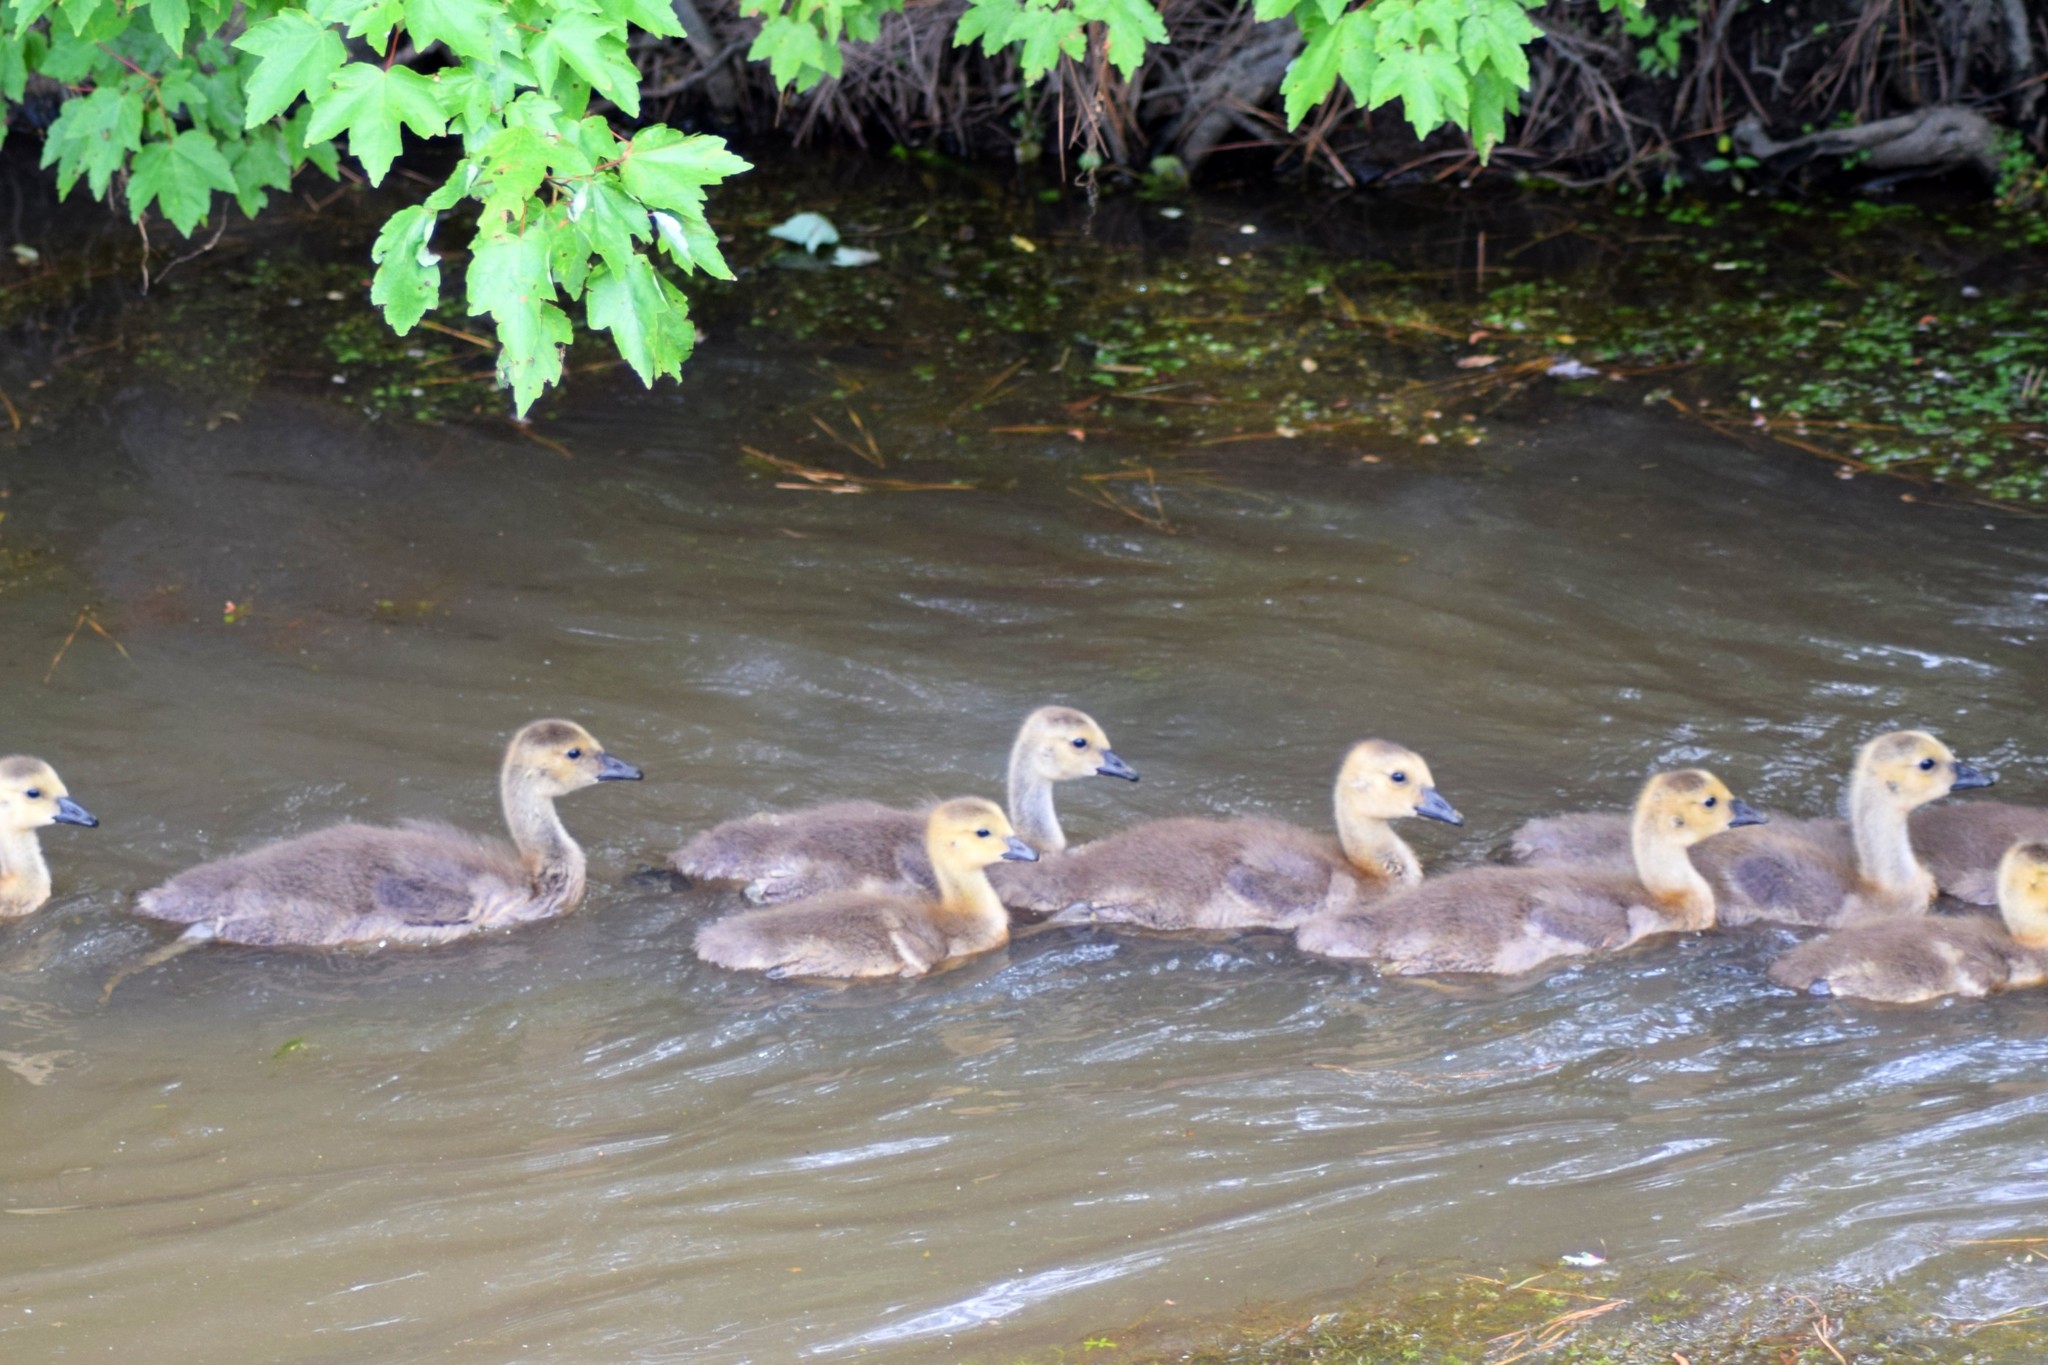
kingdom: Animalia
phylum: Chordata
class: Aves
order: Anseriformes
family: Anatidae
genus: Branta
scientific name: Branta canadensis
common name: Canada goose
